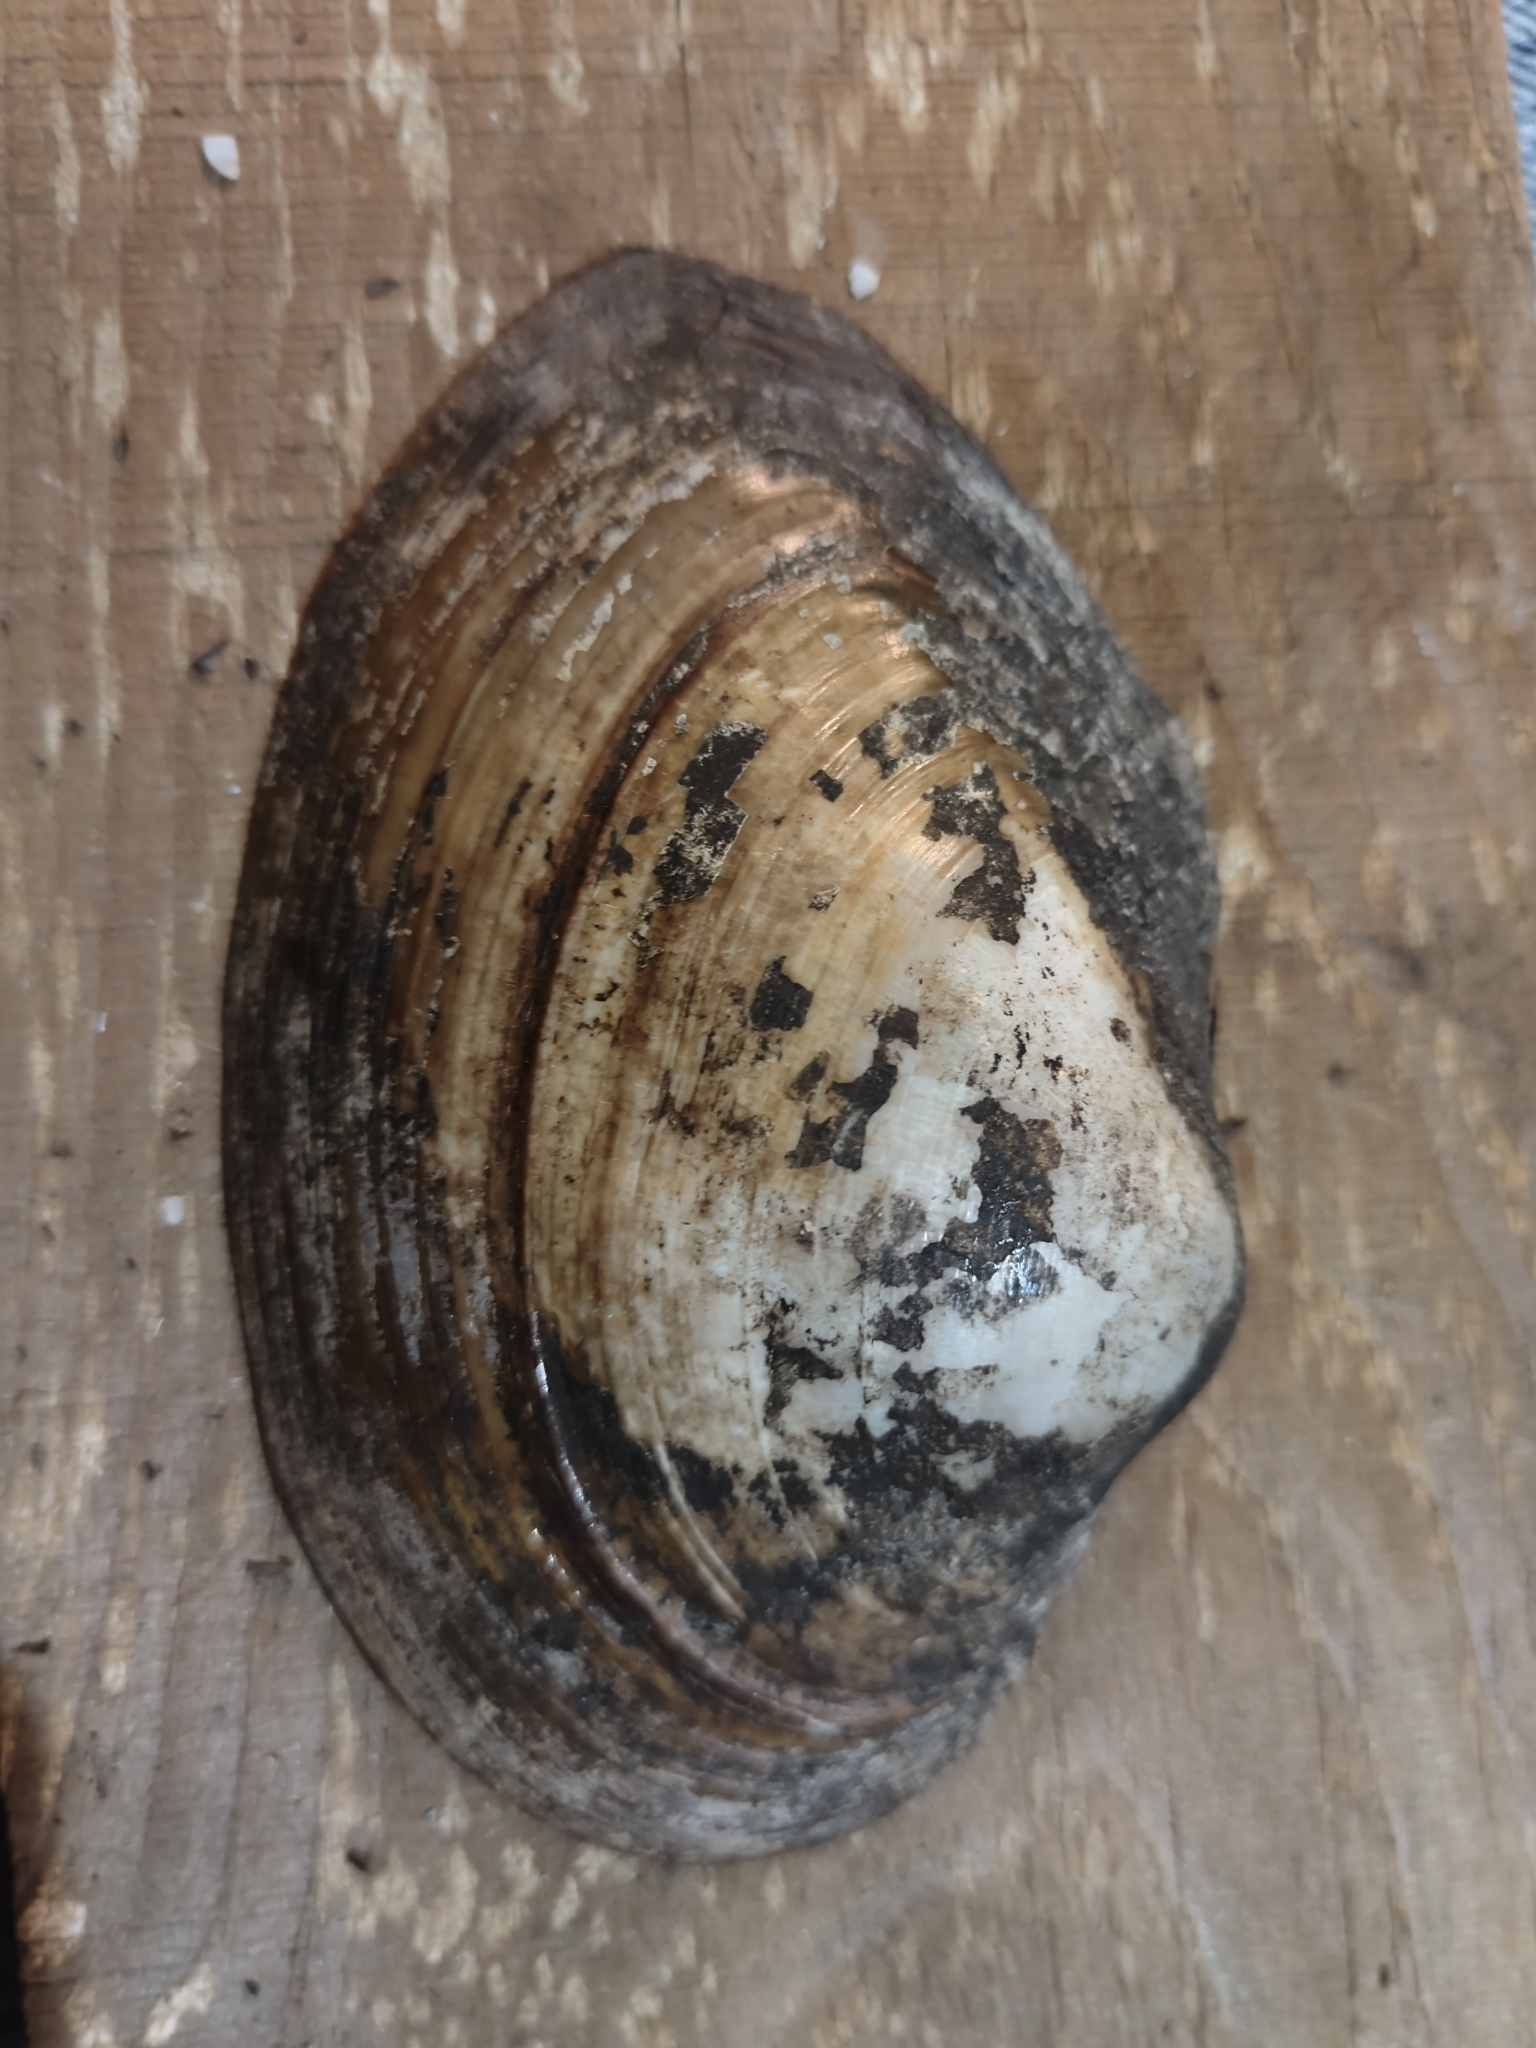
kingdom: Animalia
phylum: Mollusca
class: Bivalvia
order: Unionida
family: Unionidae
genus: Pyganodon
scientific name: Pyganodon grandis
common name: Giant floater
